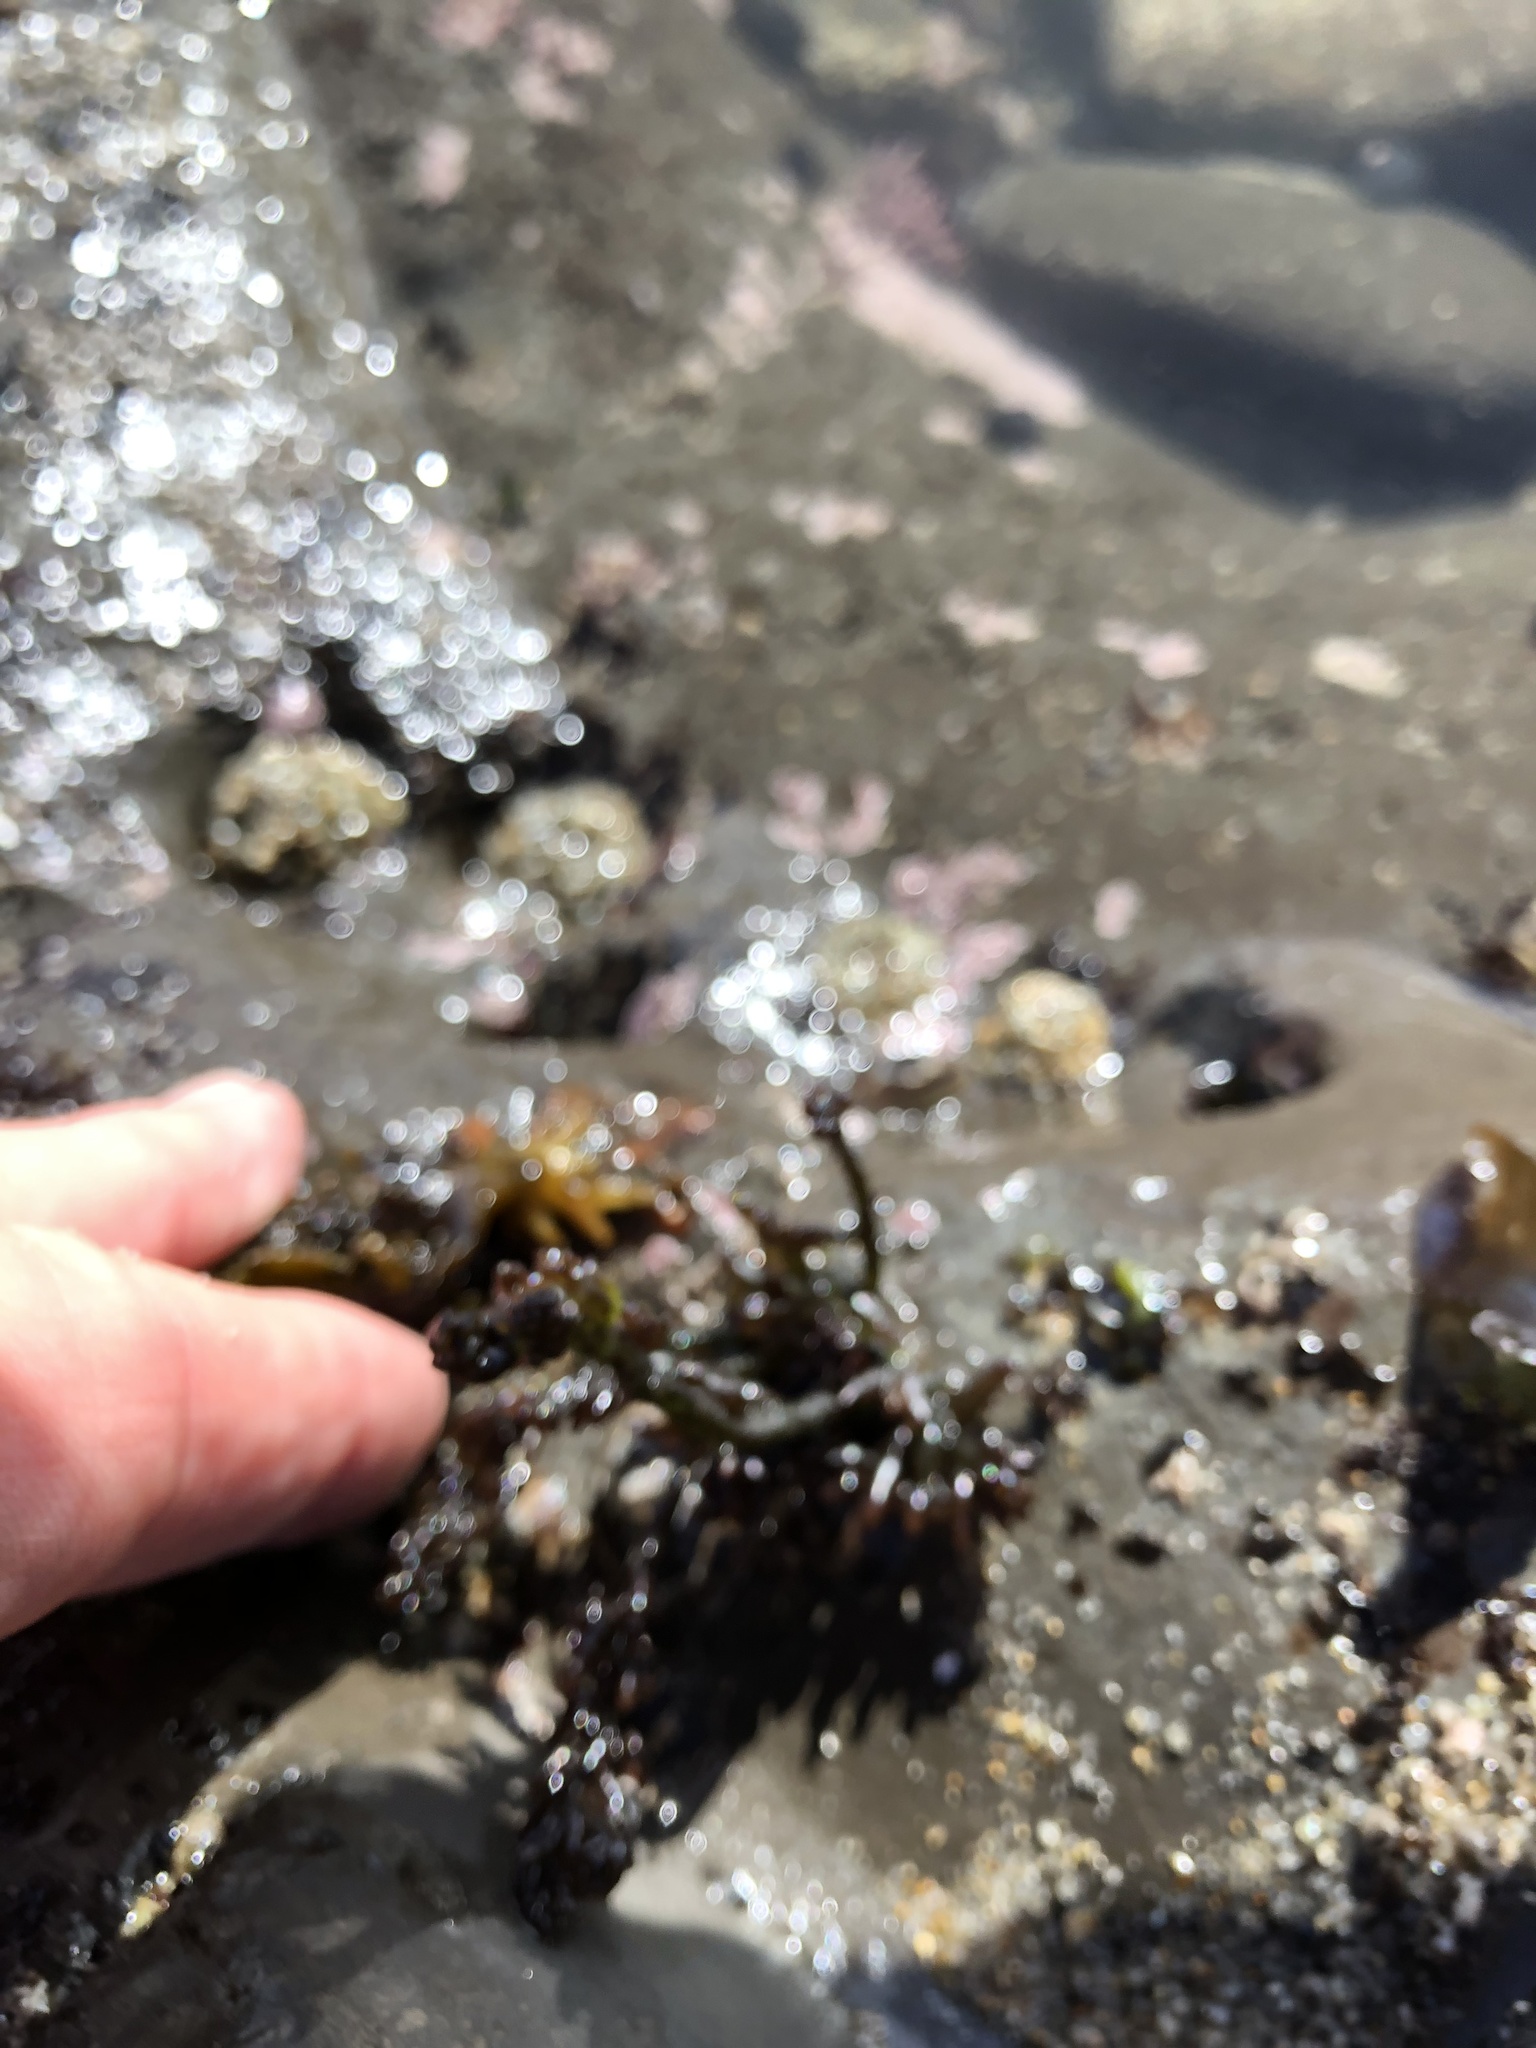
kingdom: Plantae
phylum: Rhodophyta
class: Florideophyceae
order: Rhodymeniales
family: Champiaceae
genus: Neogastroclonium
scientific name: Neogastroclonium subarticulatum
